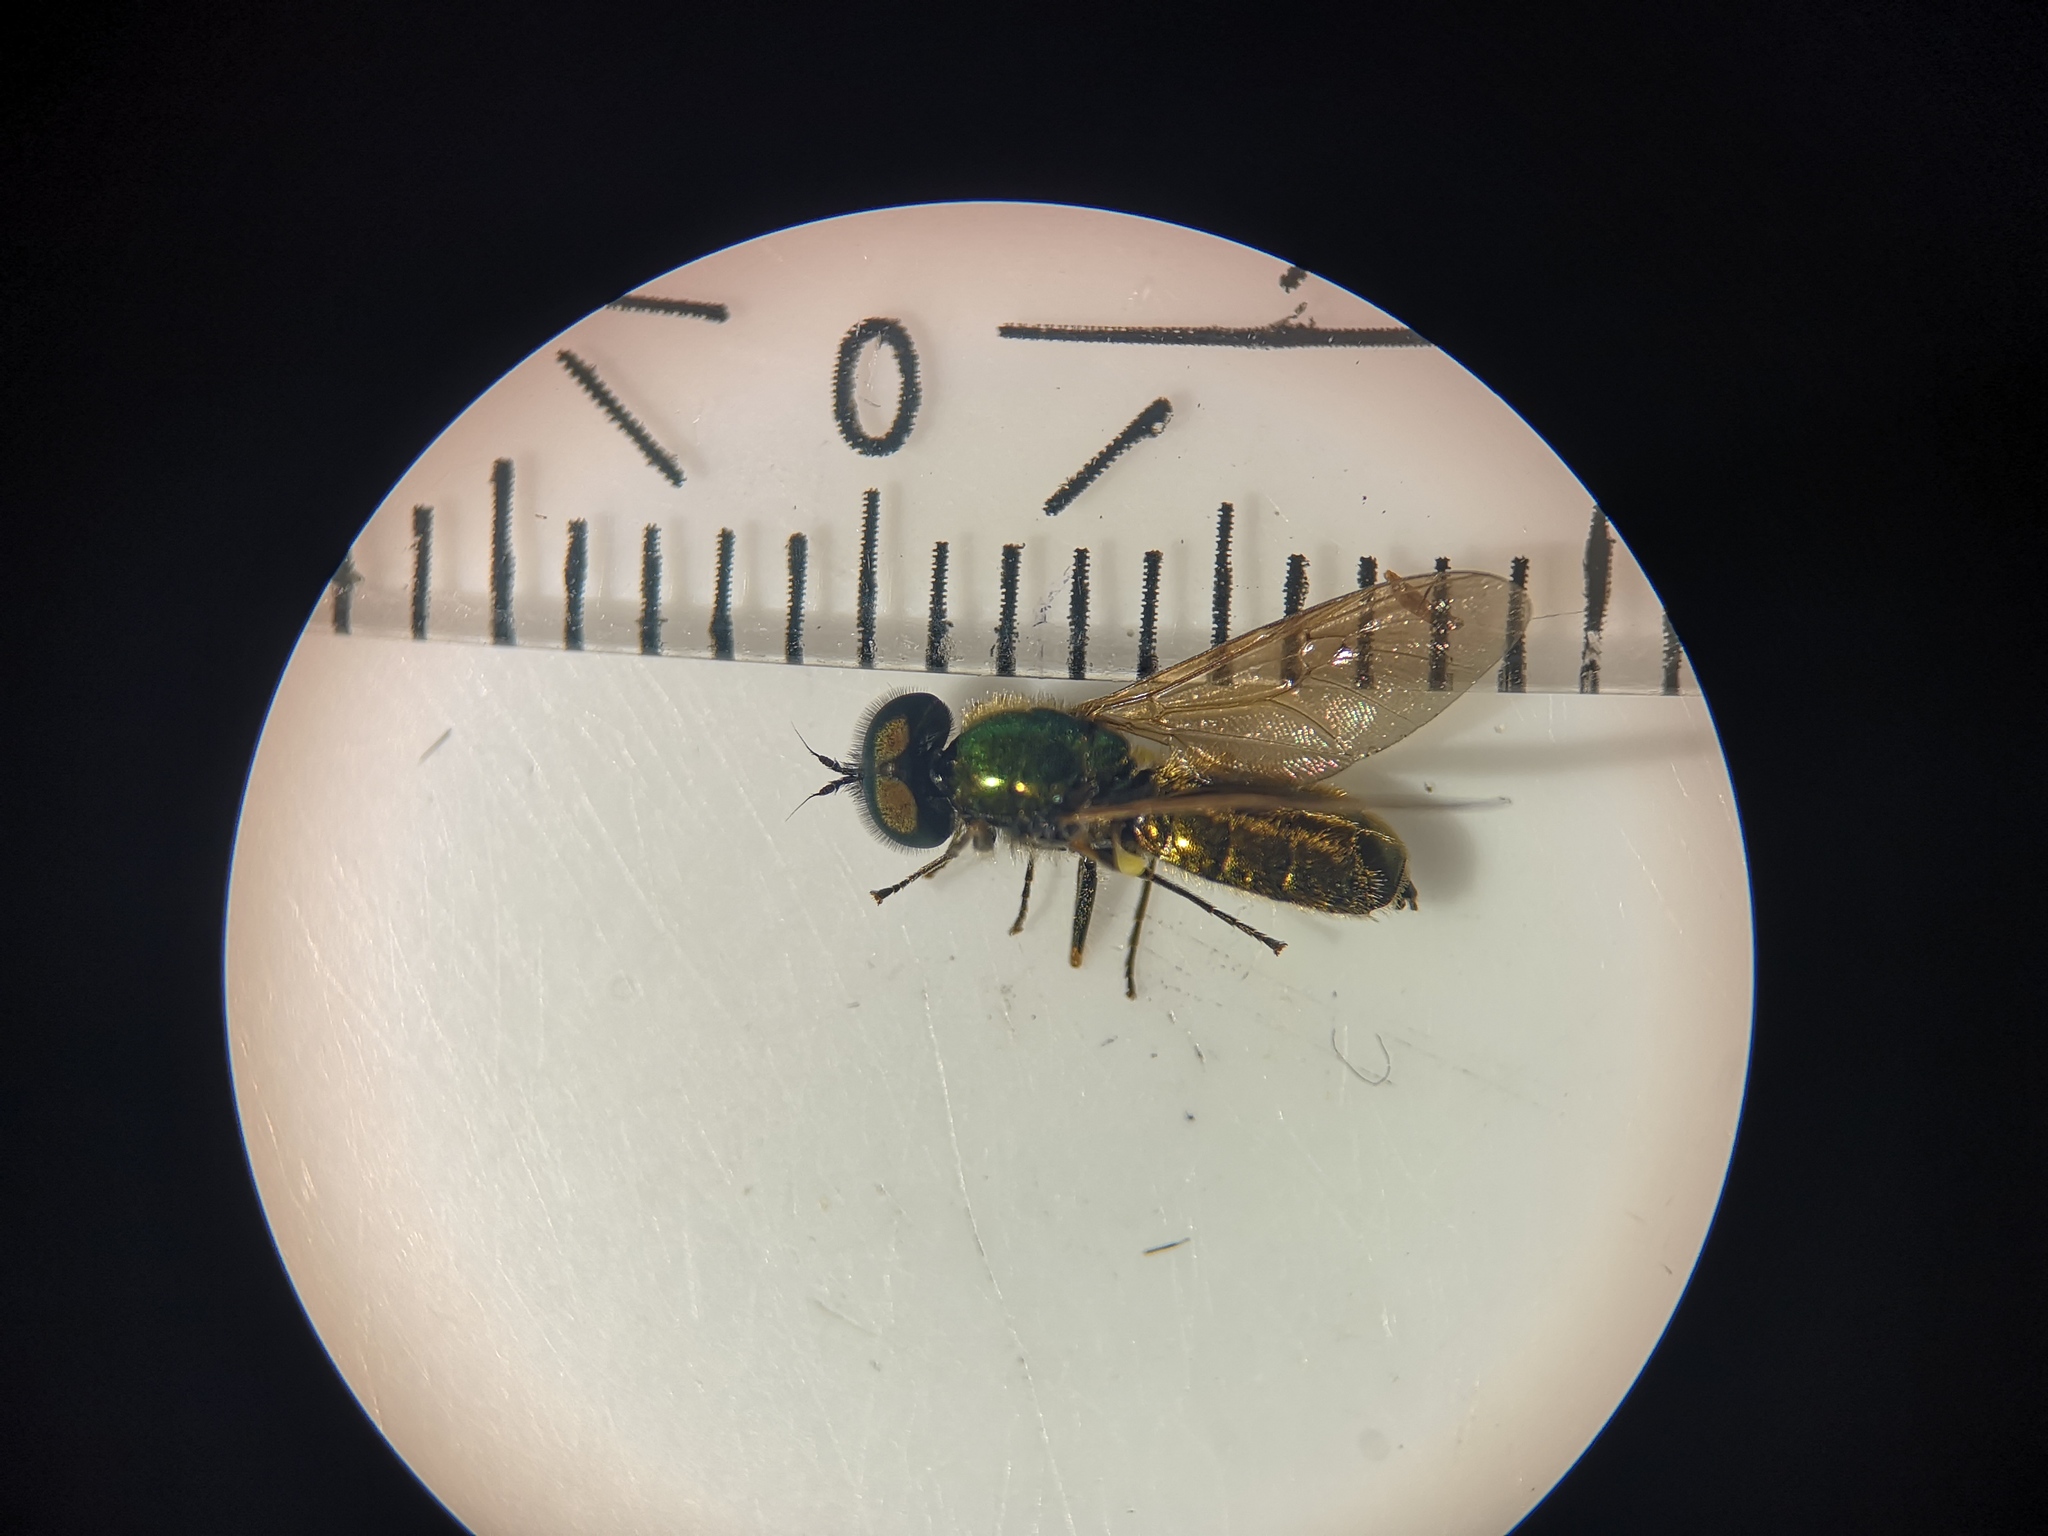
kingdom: Animalia
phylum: Arthropoda
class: Insecta
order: Diptera
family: Stratiomyidae
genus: Chloromyia
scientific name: Chloromyia formosa
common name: Soldier fly
